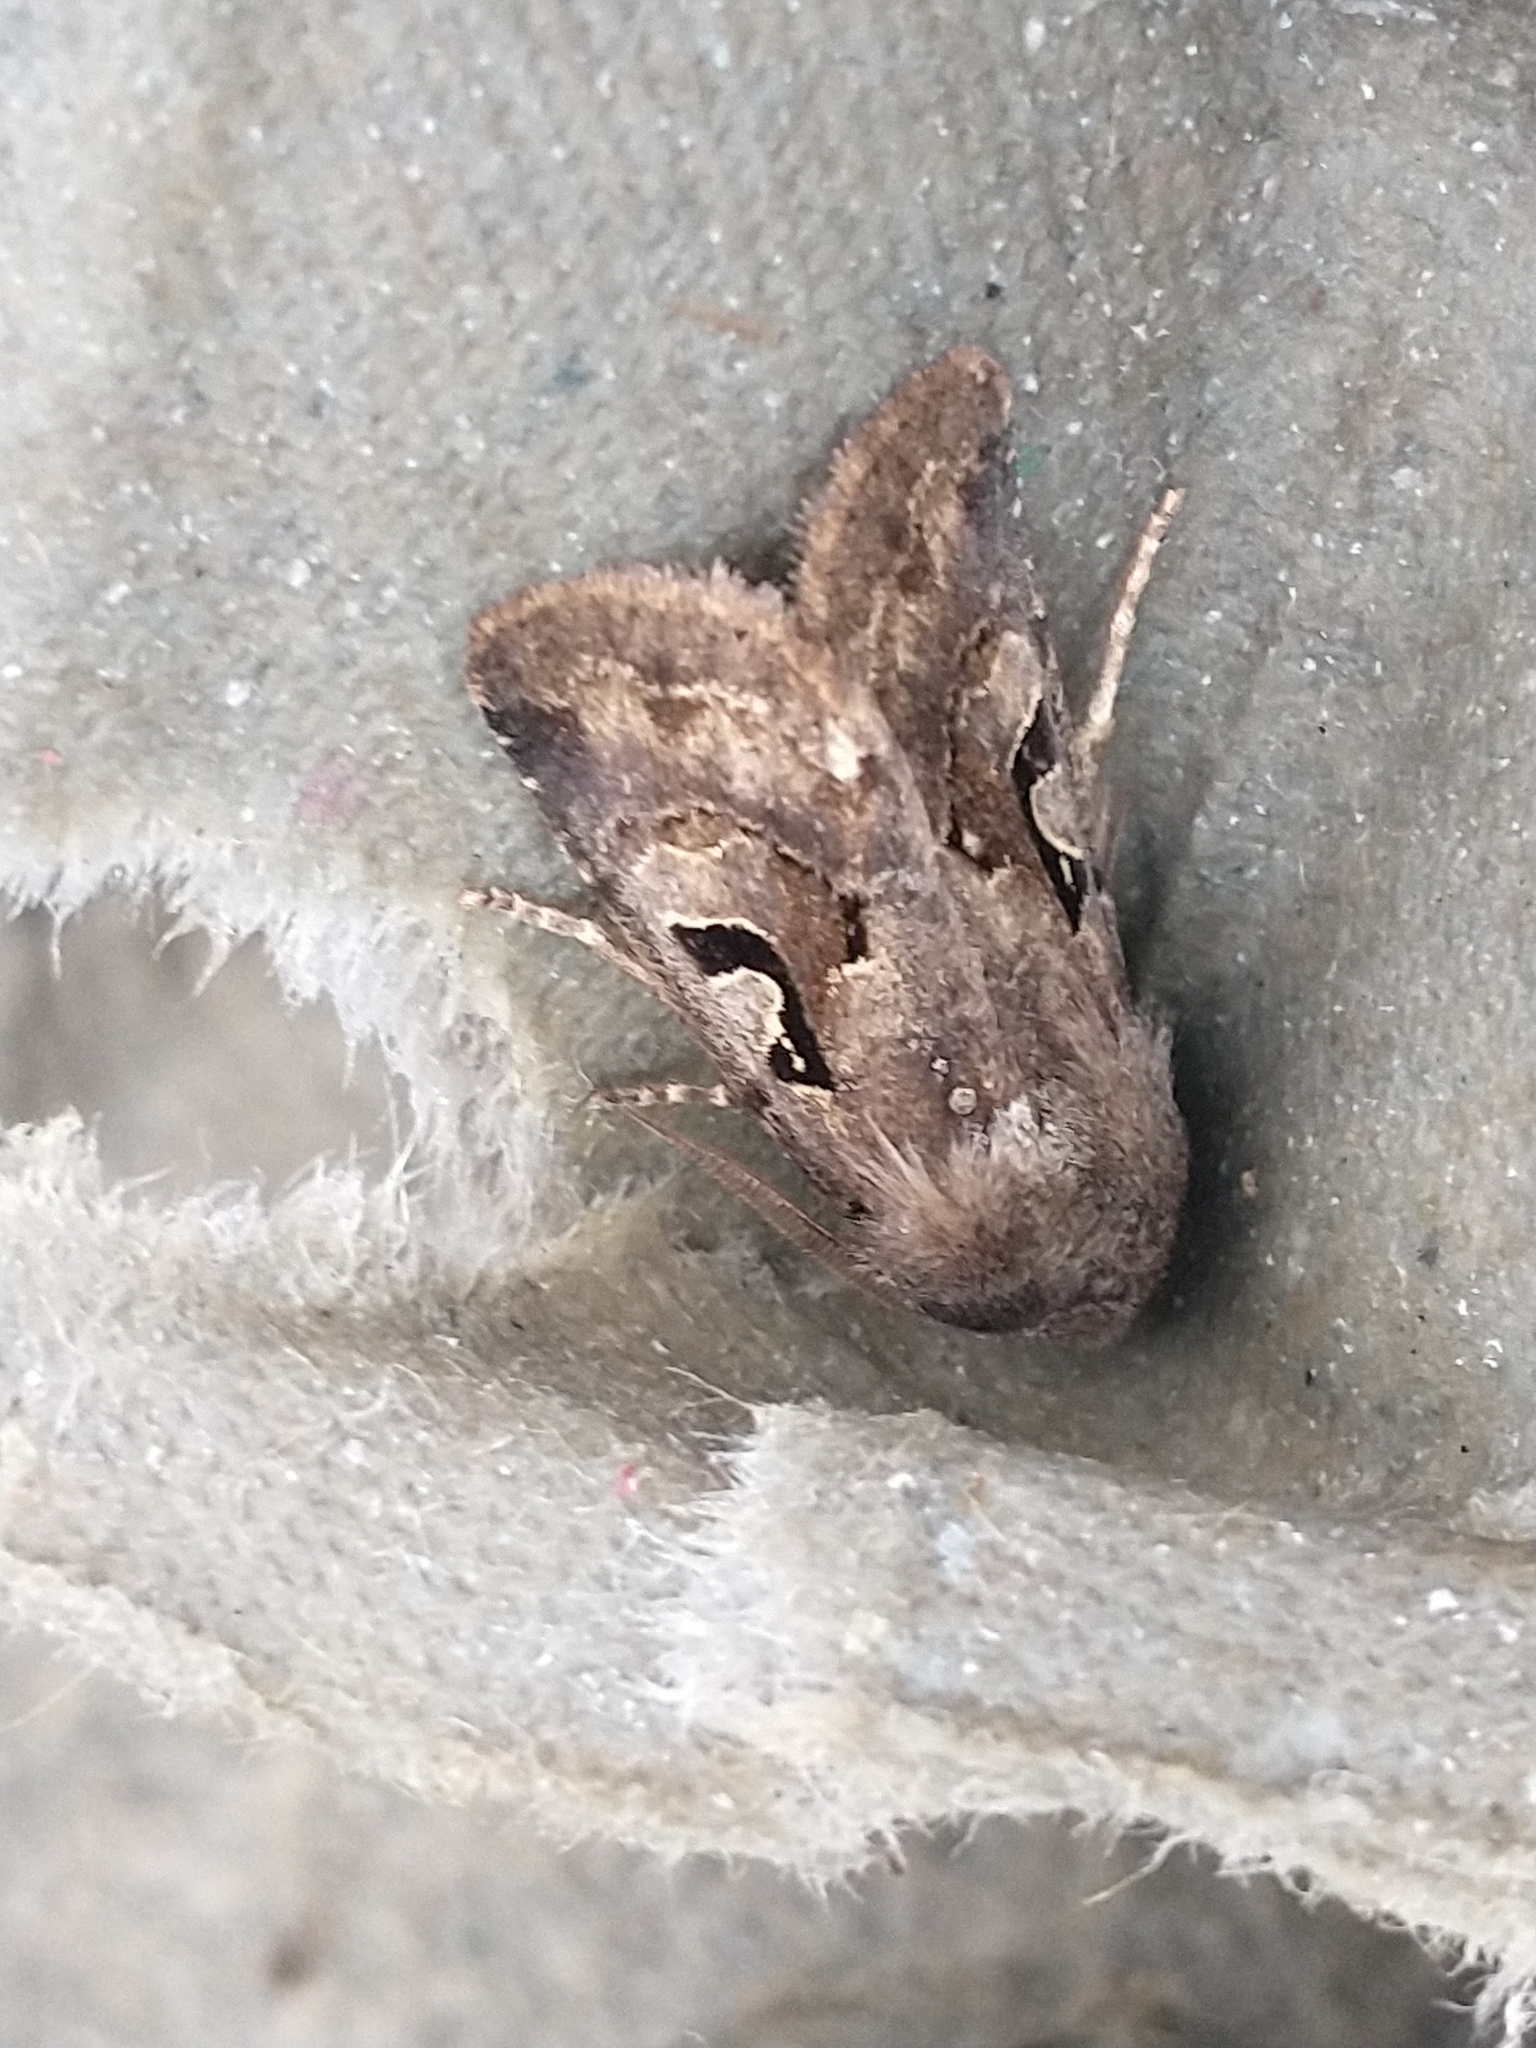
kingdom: Animalia
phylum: Arthropoda
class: Insecta
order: Lepidoptera
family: Noctuidae
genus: Orthosia
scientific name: Orthosia gothica
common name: Hebrew character
